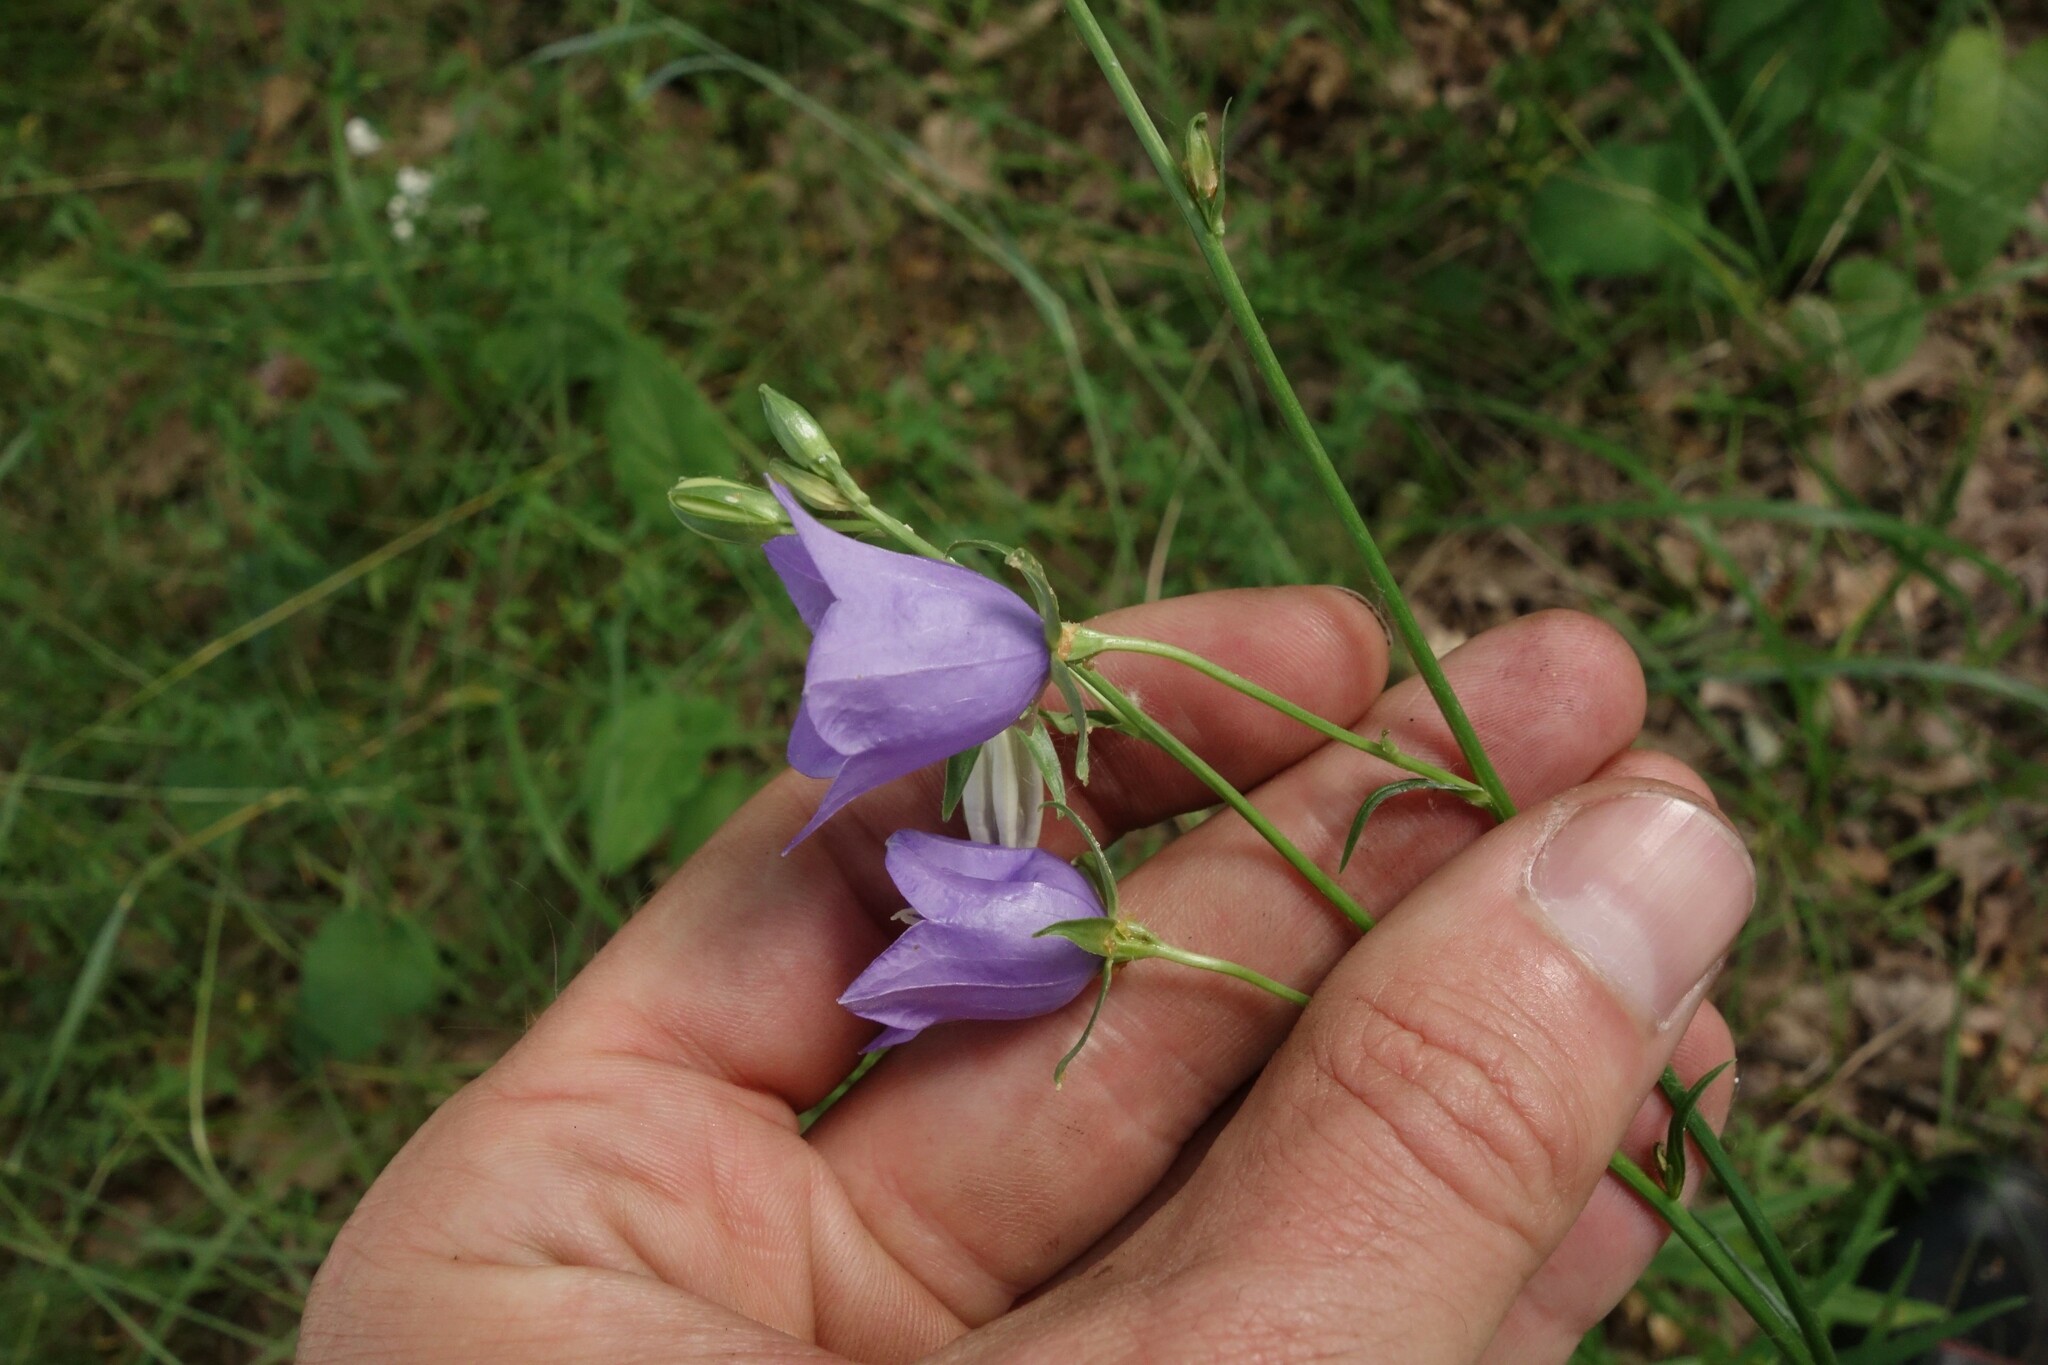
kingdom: Plantae
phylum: Tracheophyta
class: Magnoliopsida
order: Asterales
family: Campanulaceae
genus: Campanula
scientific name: Campanula persicifolia
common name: Peach-leaved bellflower
